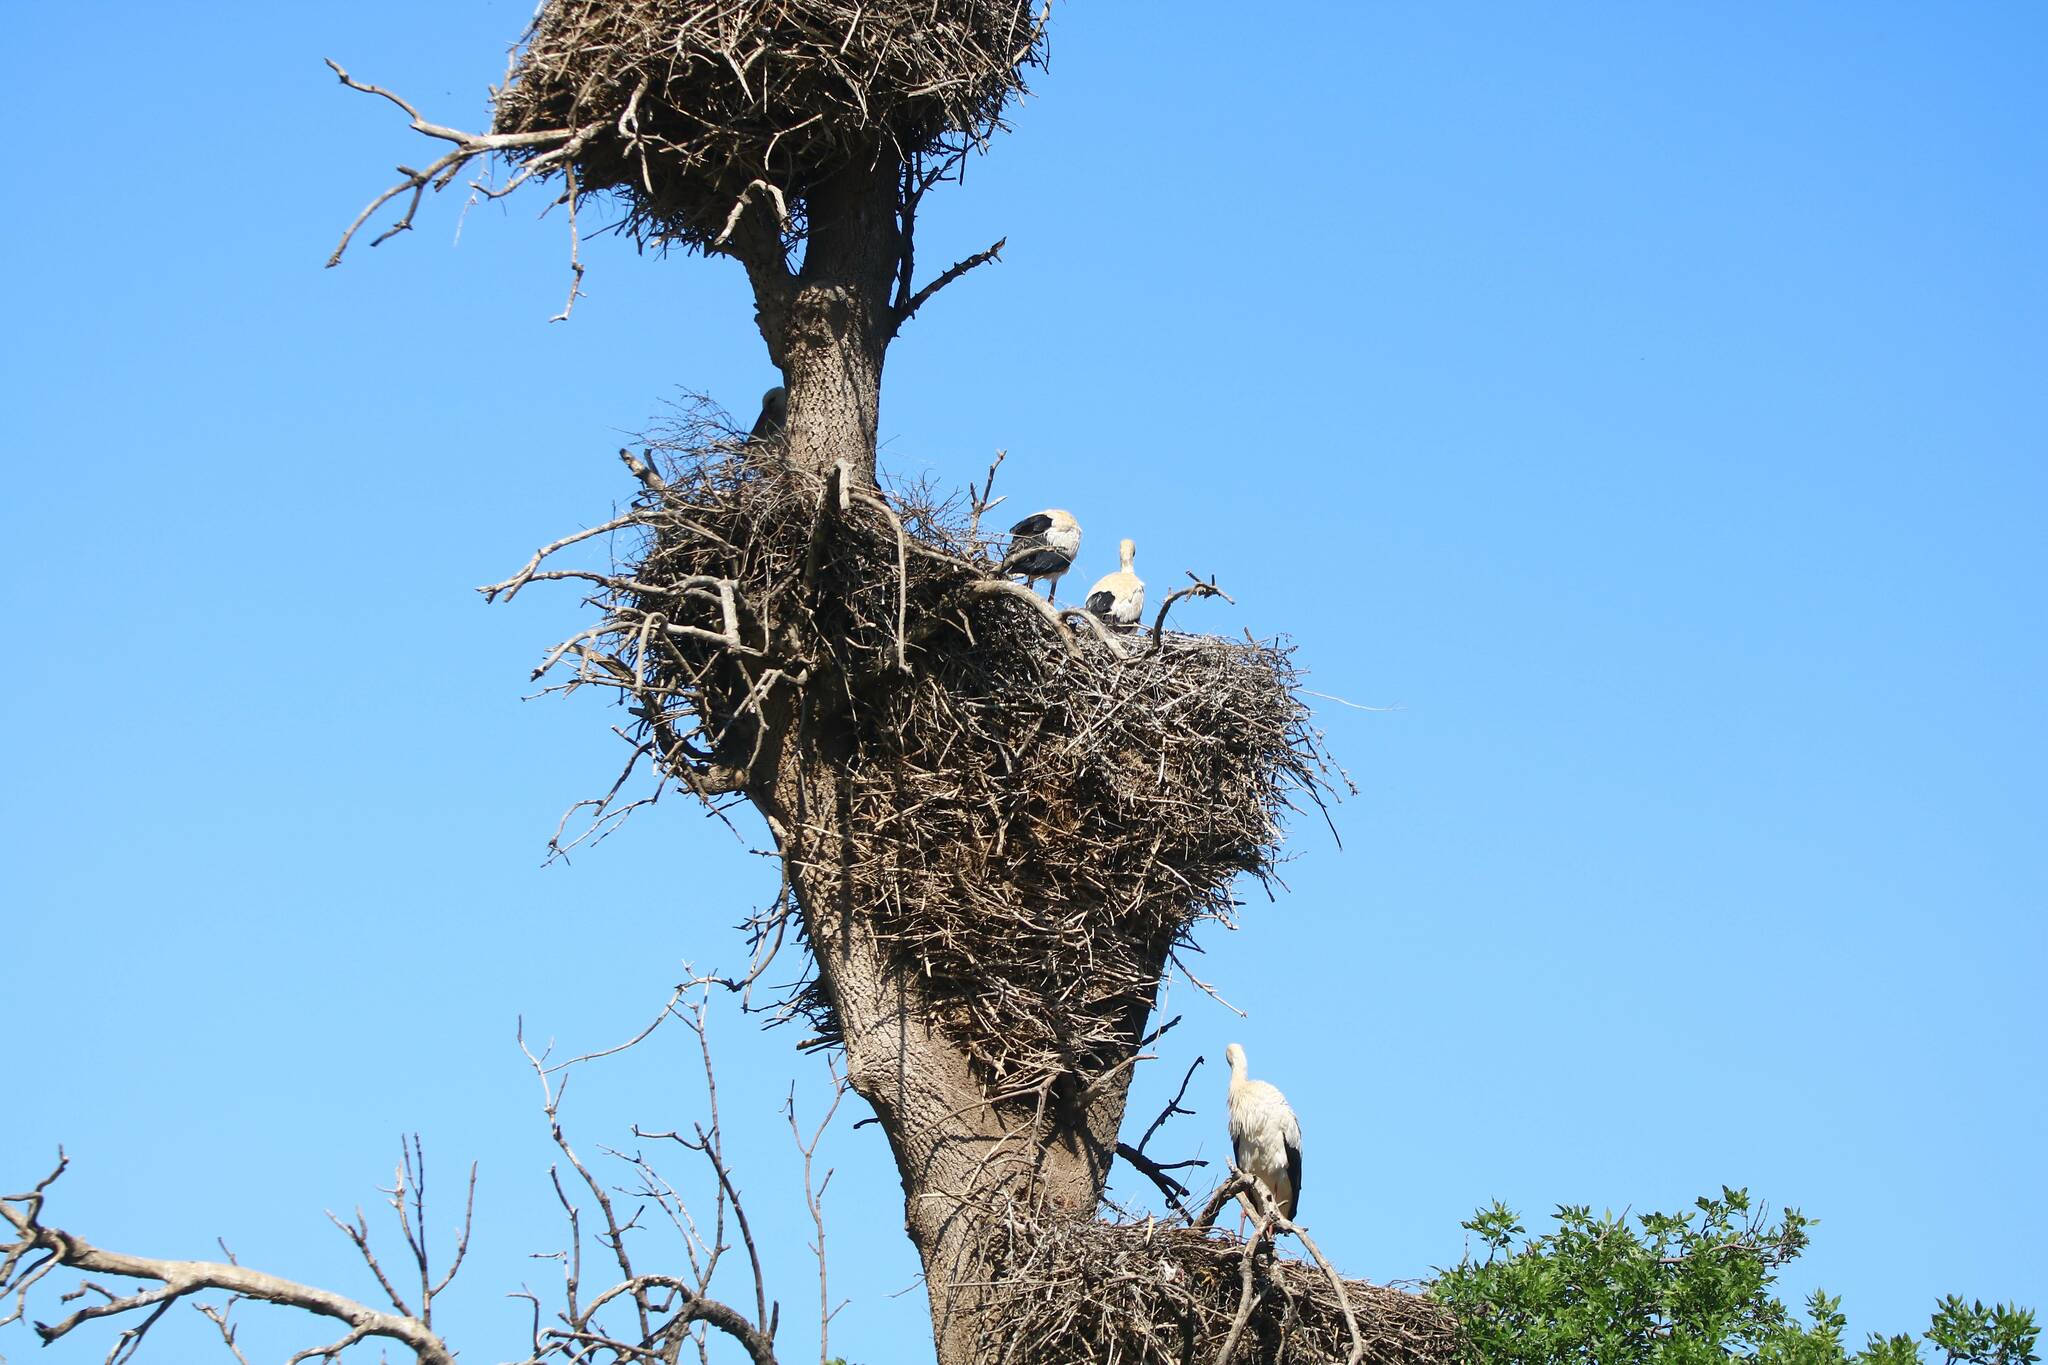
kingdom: Animalia
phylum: Chordata
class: Aves
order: Ciconiiformes
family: Ciconiidae
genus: Ciconia
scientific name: Ciconia ciconia
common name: White stork
